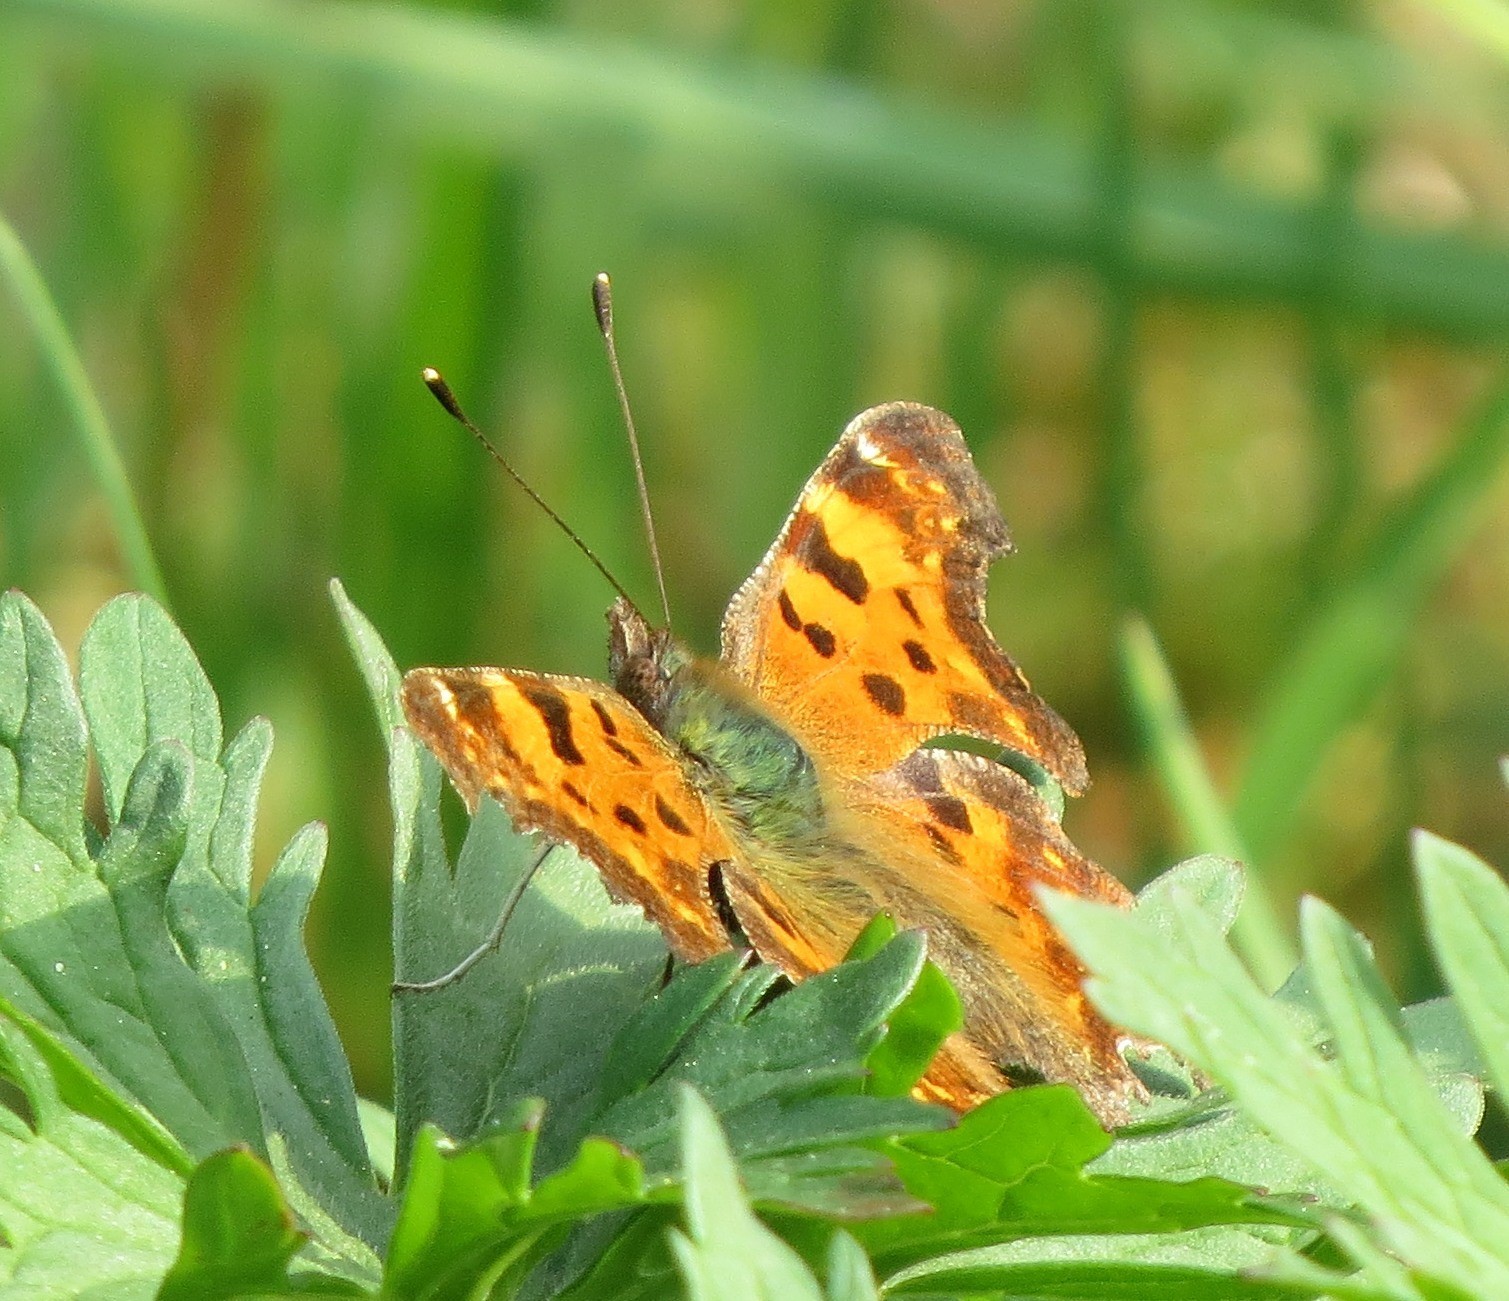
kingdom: Animalia
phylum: Arthropoda
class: Insecta
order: Lepidoptera
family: Nymphalidae
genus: Polygonia
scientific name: Polygonia c-album
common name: Comma
